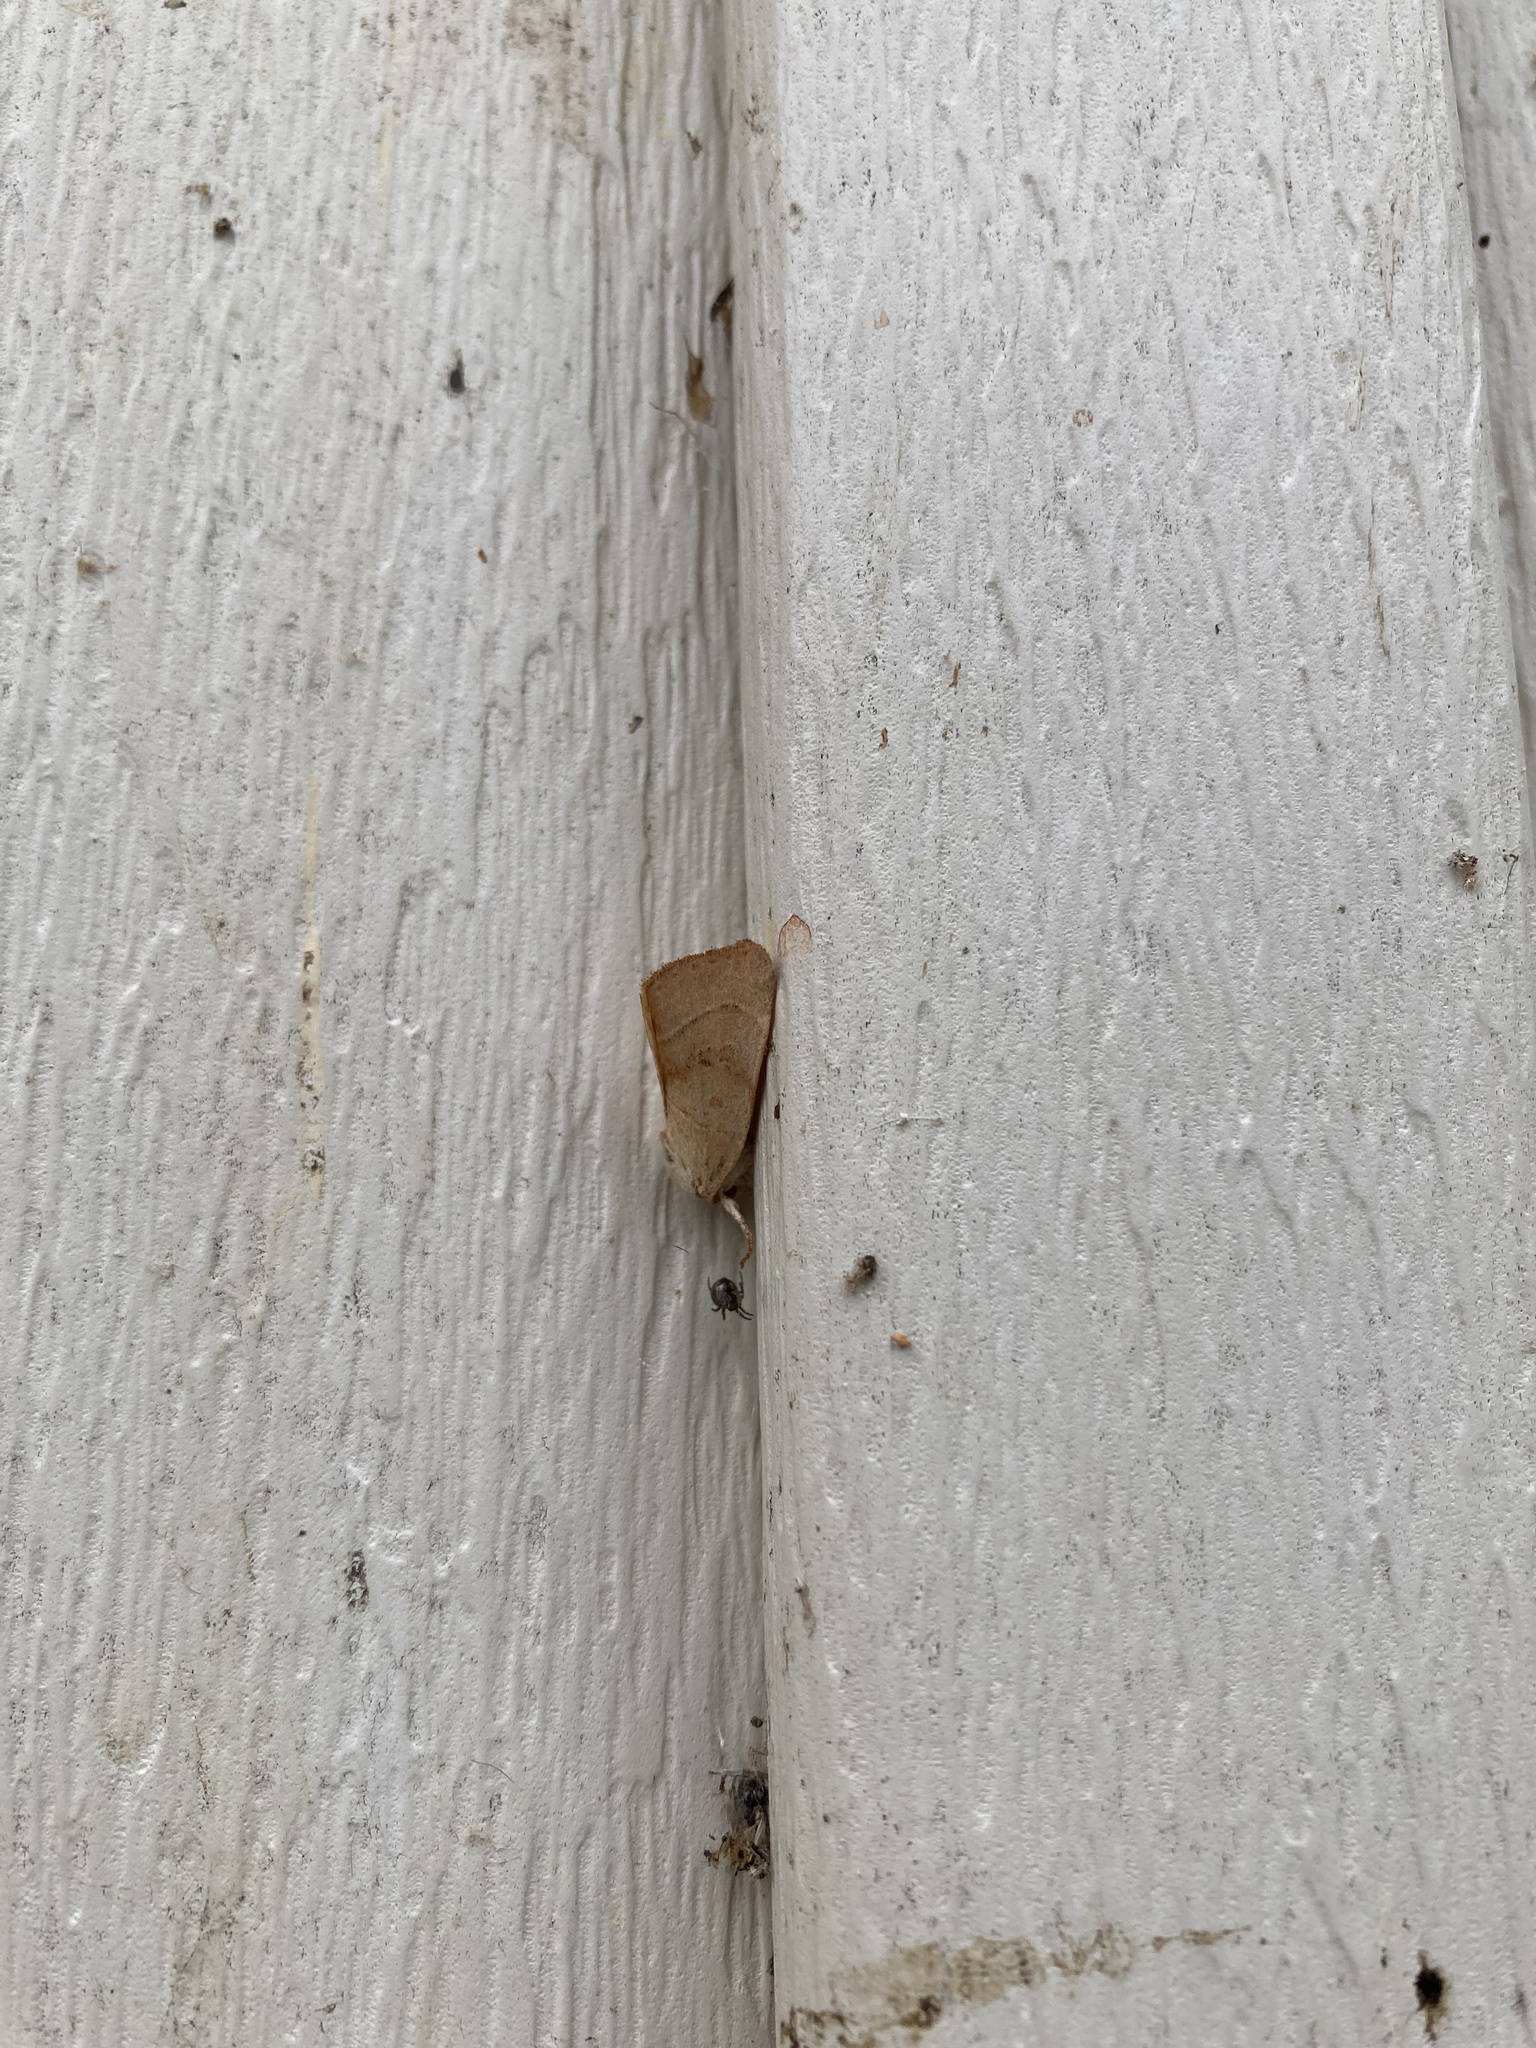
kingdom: Animalia
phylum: Arthropoda
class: Insecta
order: Lepidoptera
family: Noctuidae
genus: Cosmia
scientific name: Cosmia calami
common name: American dun-bar moth
